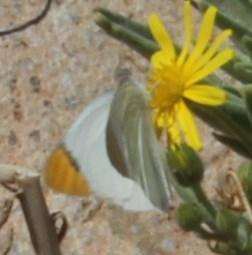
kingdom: Animalia
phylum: Arthropoda
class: Insecta
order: Lepidoptera
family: Pieridae
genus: Teracolus
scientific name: Teracolus agoye
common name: Speckled sulphur tip
